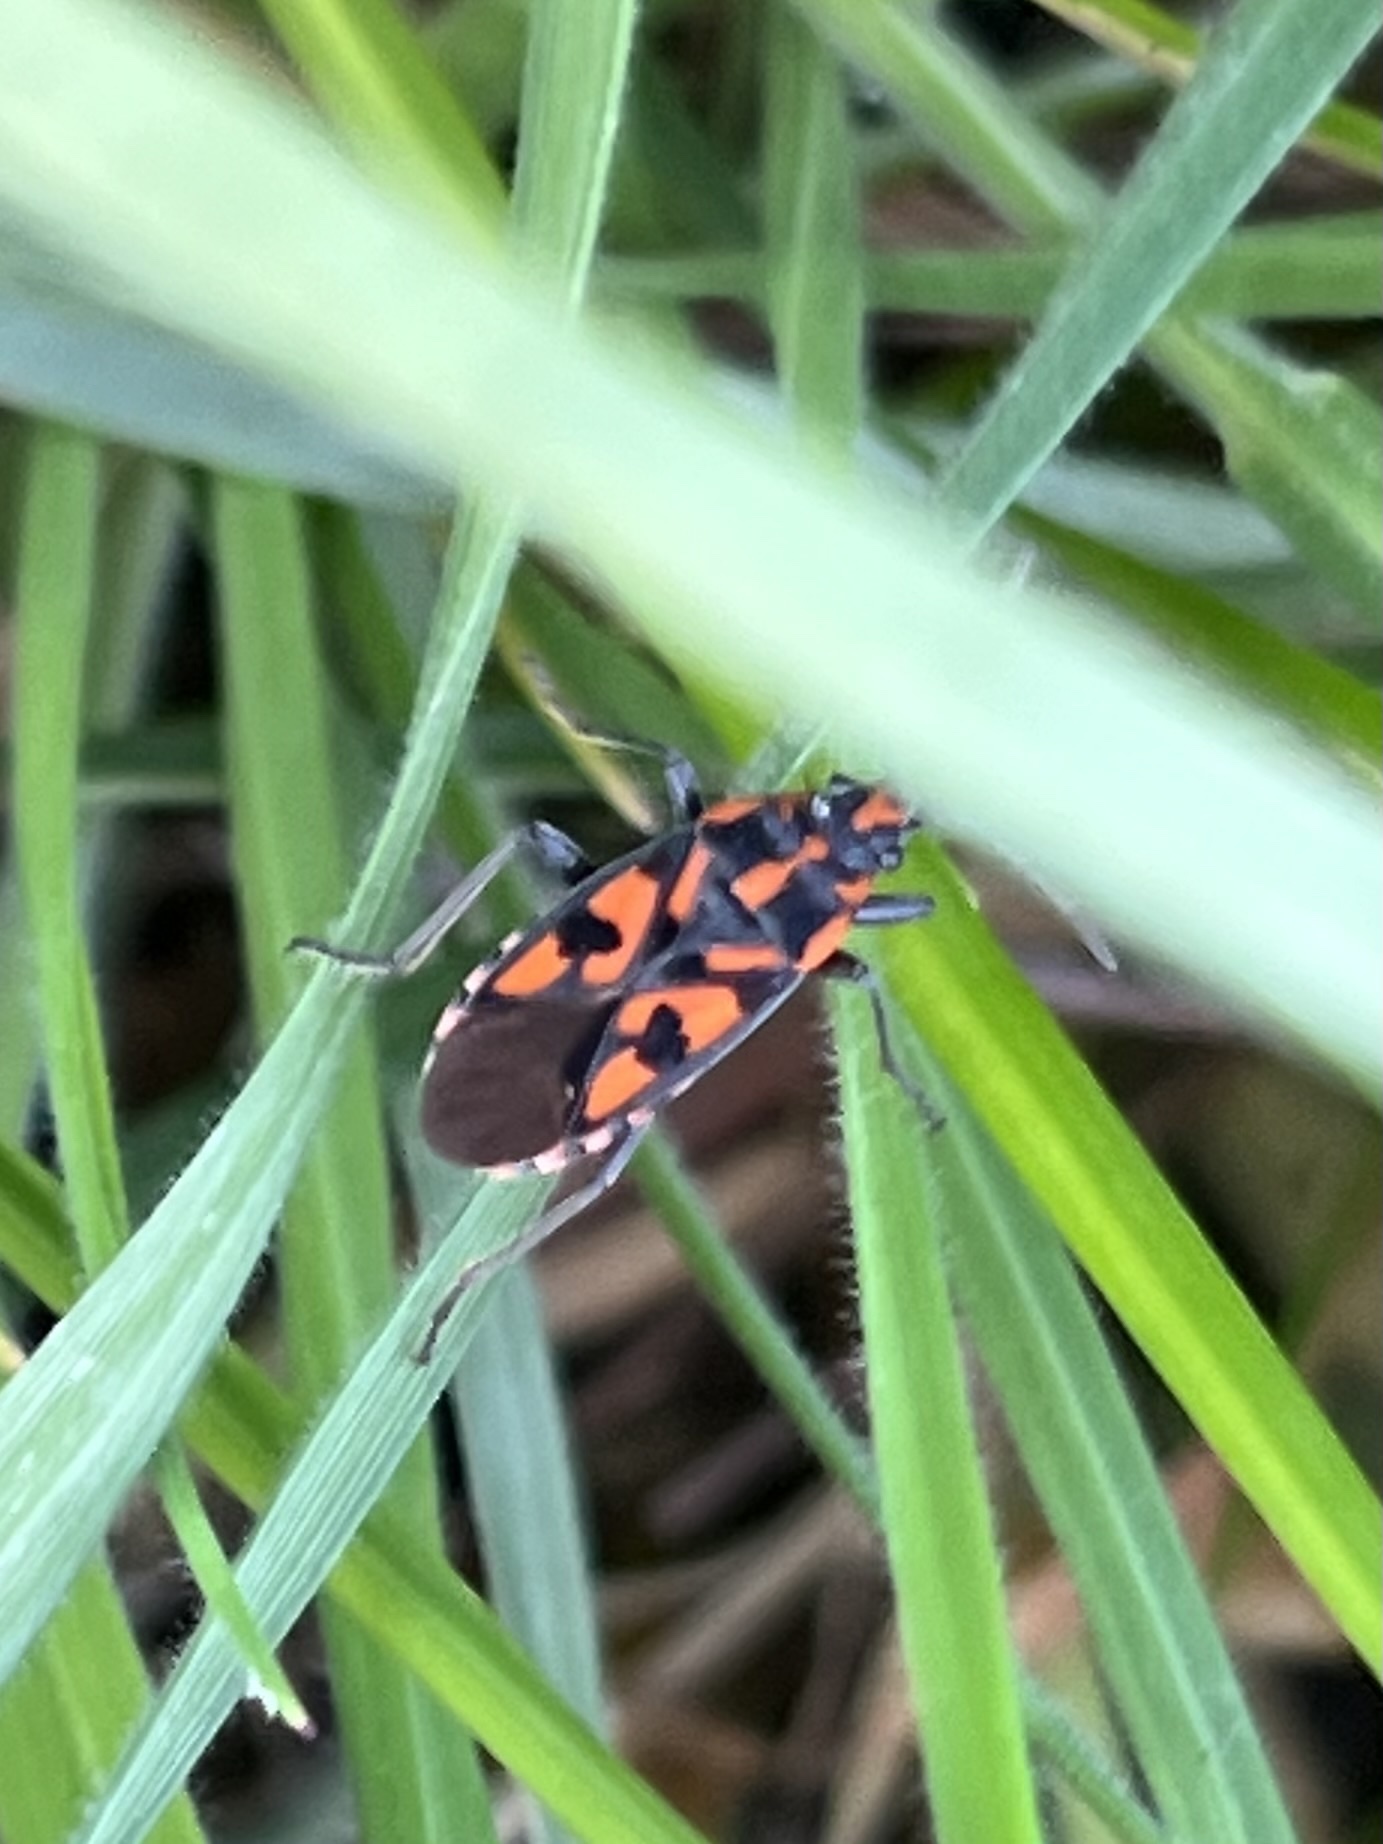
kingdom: Animalia
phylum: Arthropoda
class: Insecta
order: Hemiptera
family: Lygaeidae
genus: Spilostethus
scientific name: Spilostethus saxatilis
